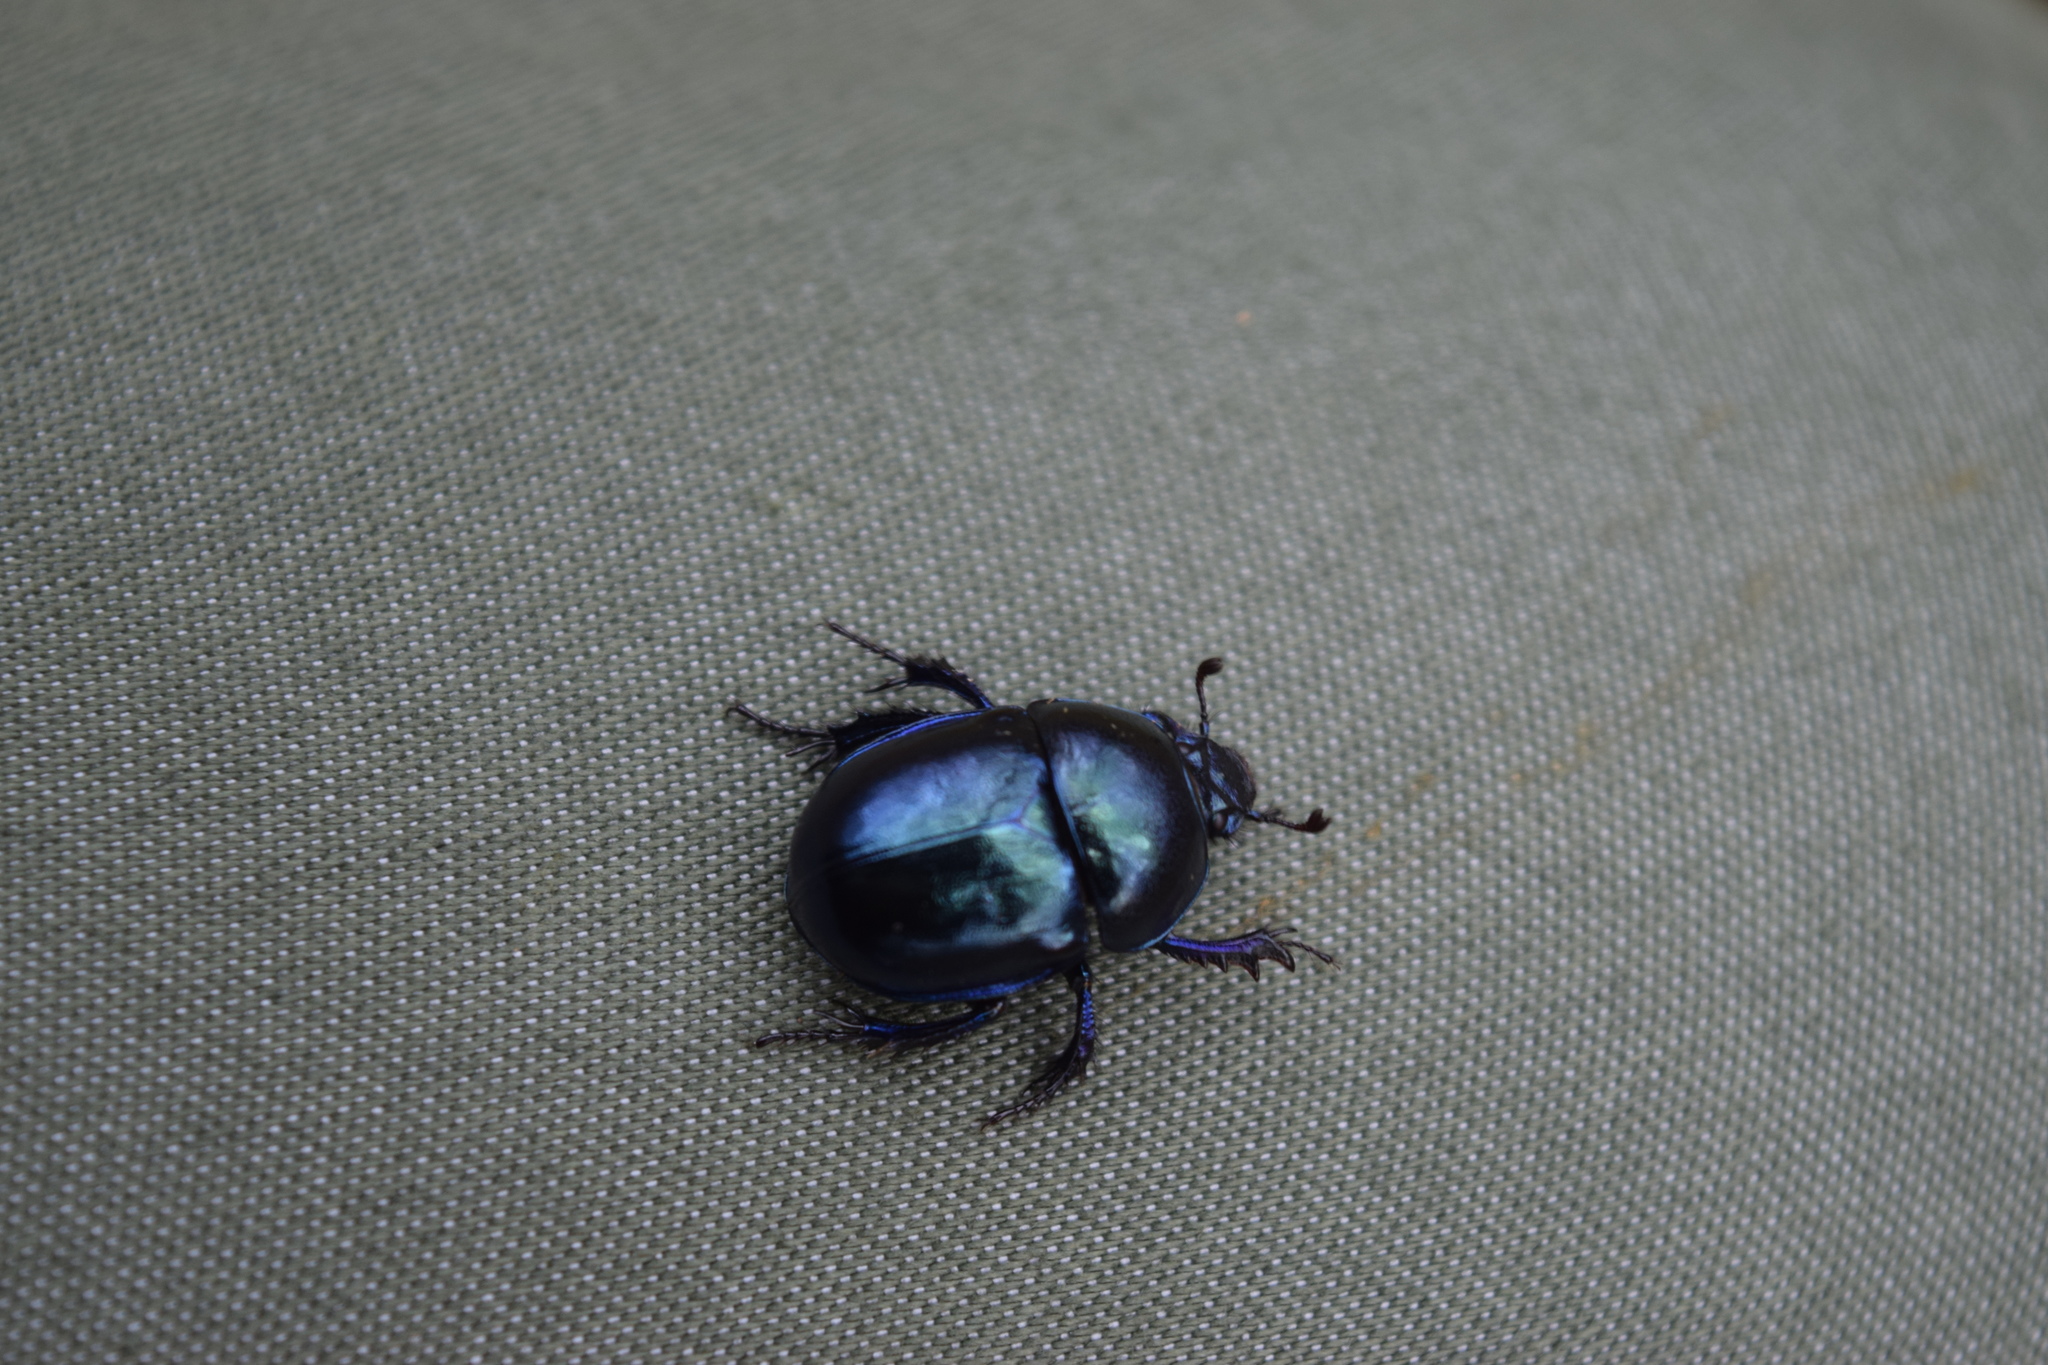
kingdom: Animalia
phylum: Arthropoda
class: Insecta
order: Coleoptera
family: Geotrupidae
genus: Anoplotrupes
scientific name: Anoplotrupes stercorosus
